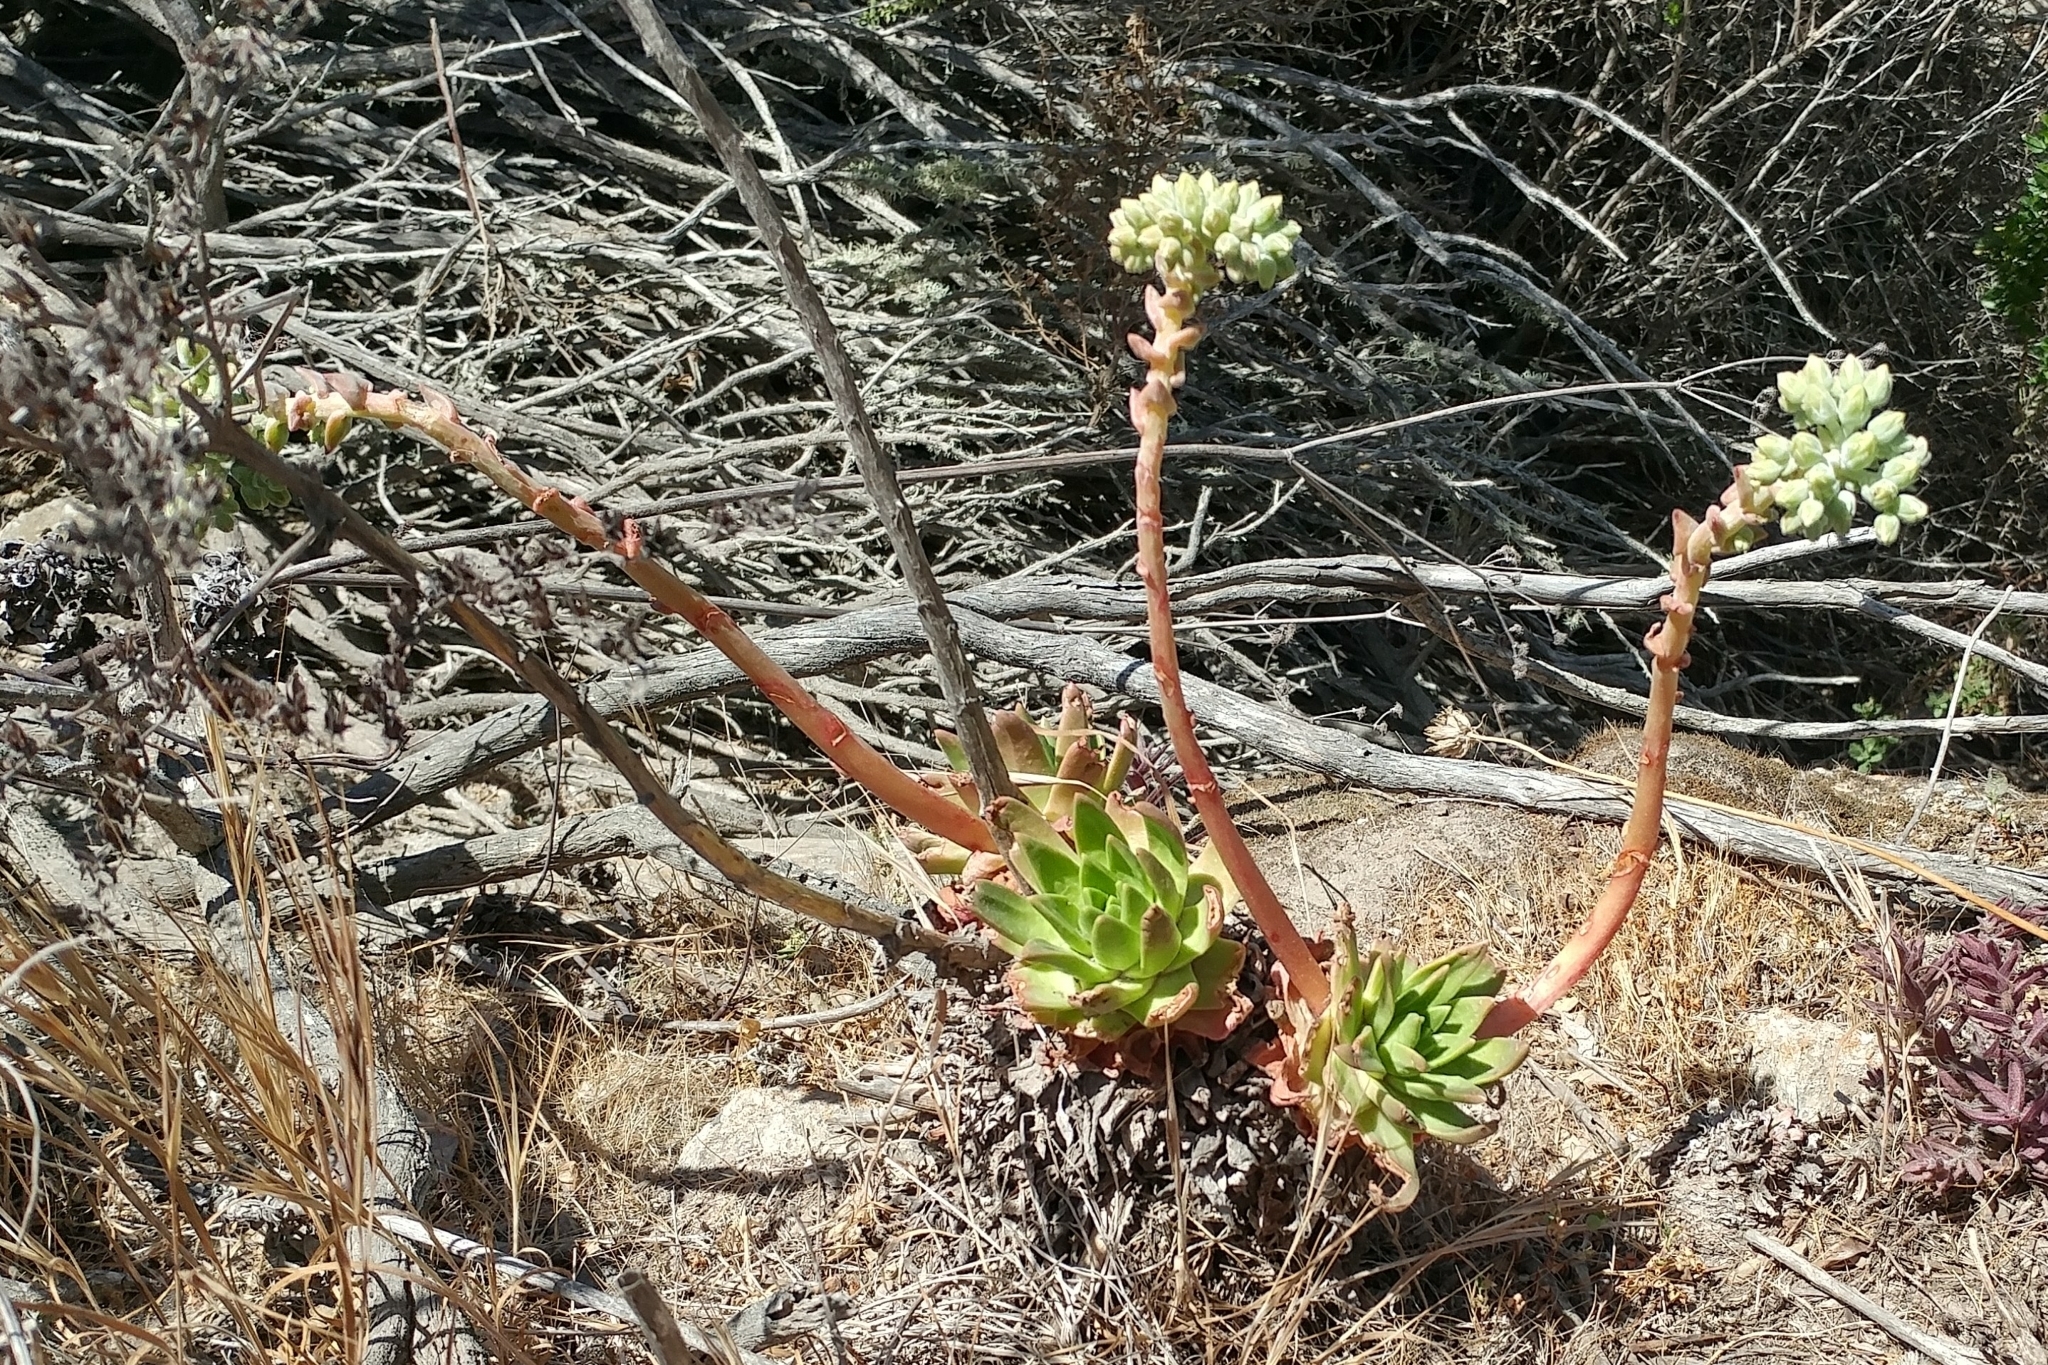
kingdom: Plantae
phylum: Tracheophyta
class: Magnoliopsida
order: Saxifragales
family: Crassulaceae
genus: Dudleya
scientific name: Dudleya greenei
